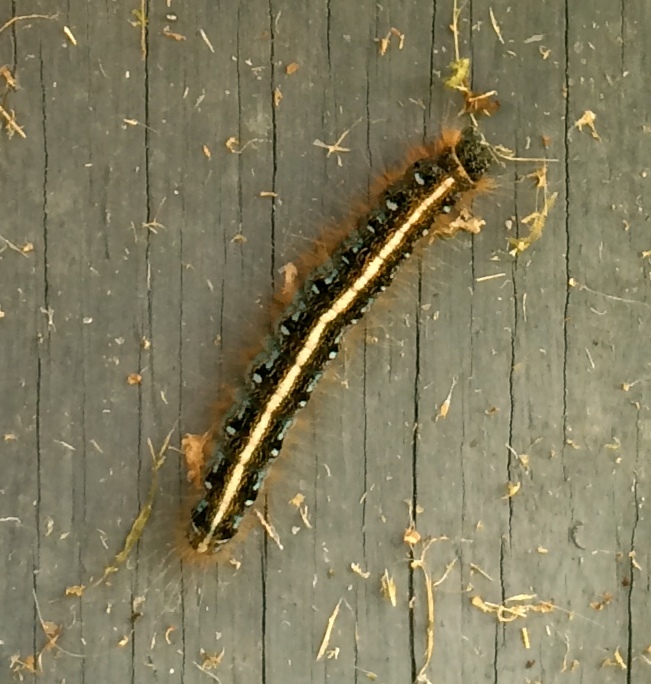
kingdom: Animalia
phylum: Arthropoda
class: Insecta
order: Lepidoptera
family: Lasiocampidae
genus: Malacosoma
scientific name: Malacosoma americana
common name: Eastern tent caterpillar moth
